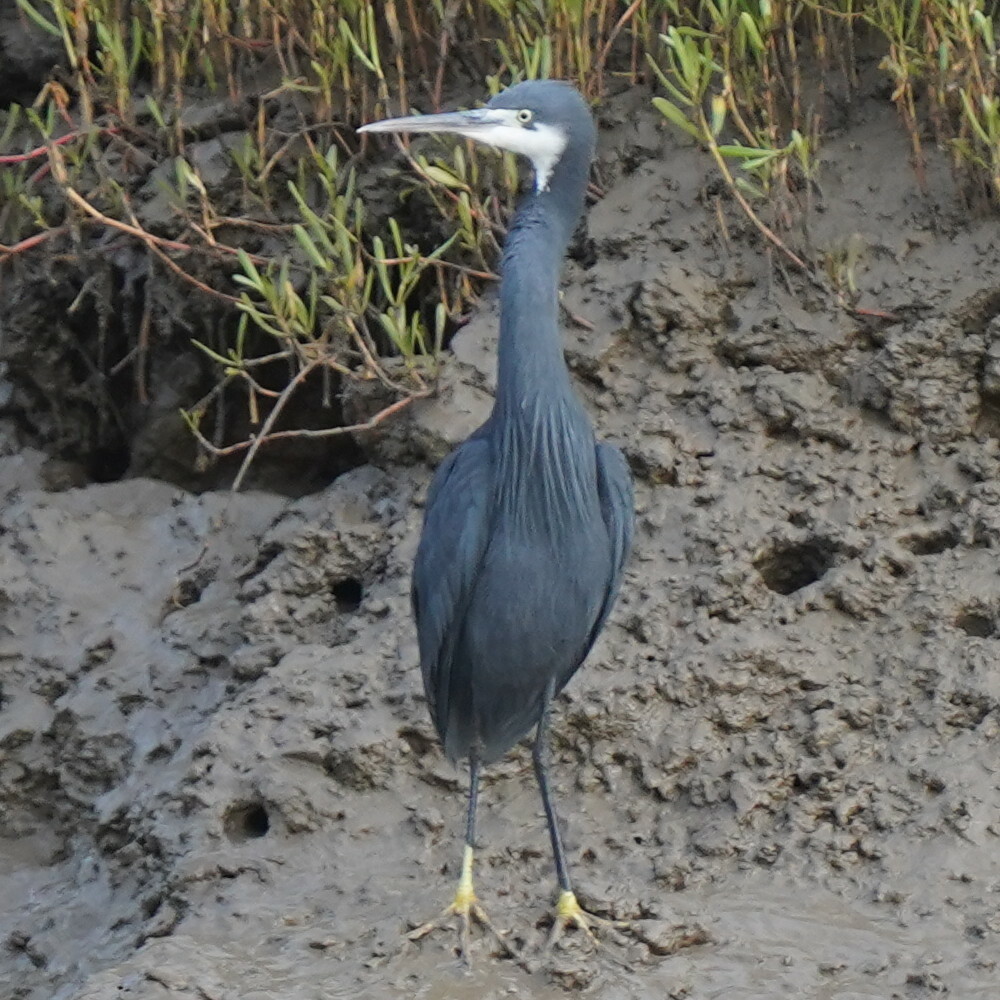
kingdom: Animalia
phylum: Chordata
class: Aves
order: Pelecaniformes
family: Ardeidae
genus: Egretta
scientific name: Egretta gularis
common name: Western reef-heron
